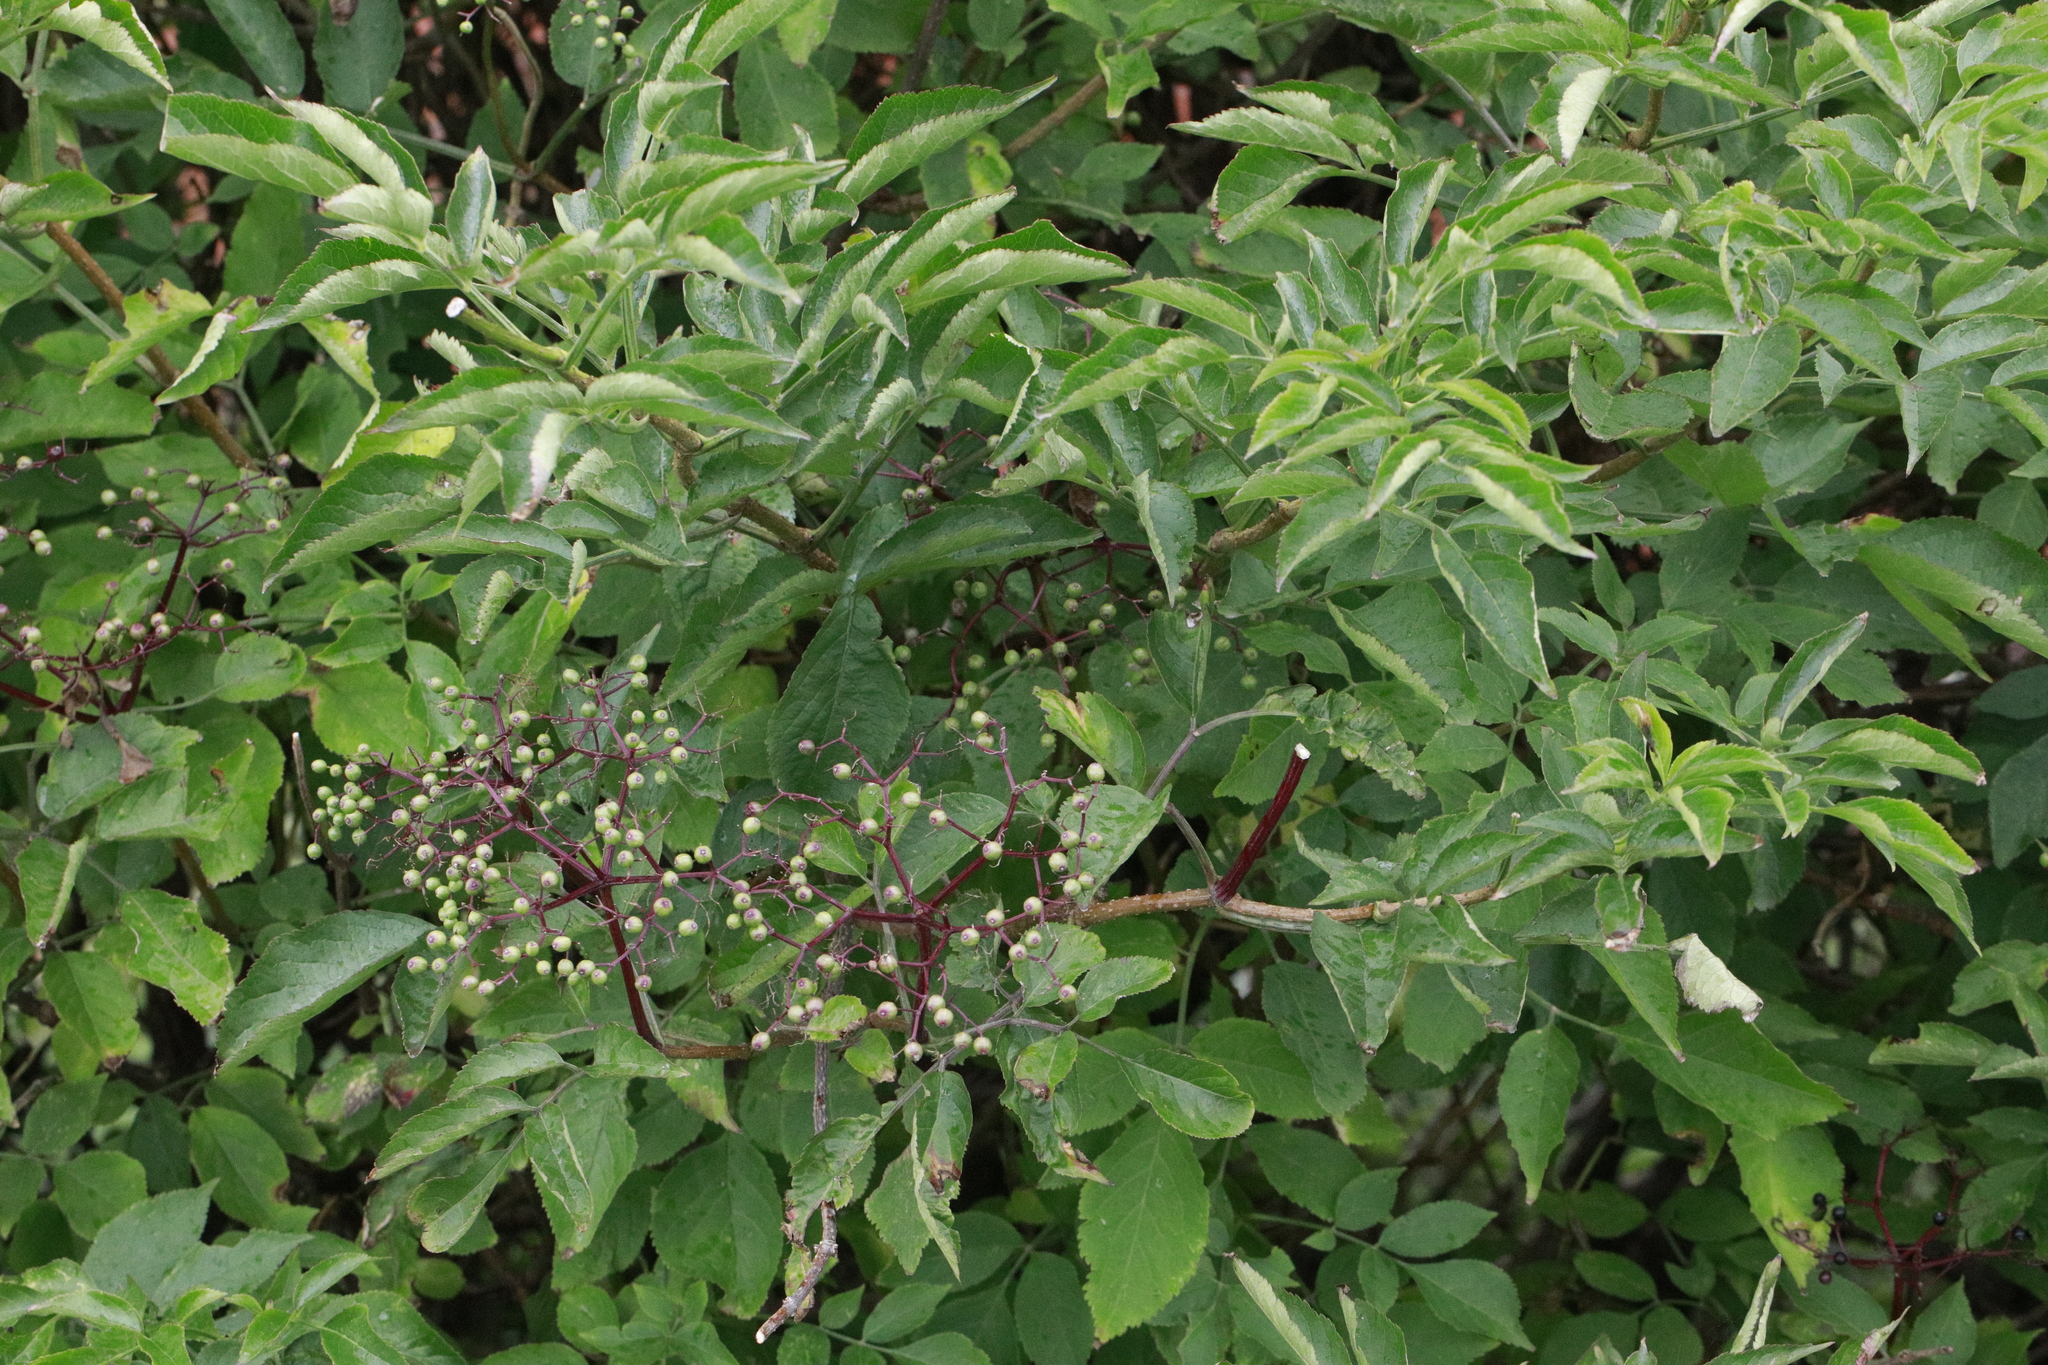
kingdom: Plantae
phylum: Tracheophyta
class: Magnoliopsida
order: Dipsacales
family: Viburnaceae
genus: Sambucus
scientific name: Sambucus nigra
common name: Elder
